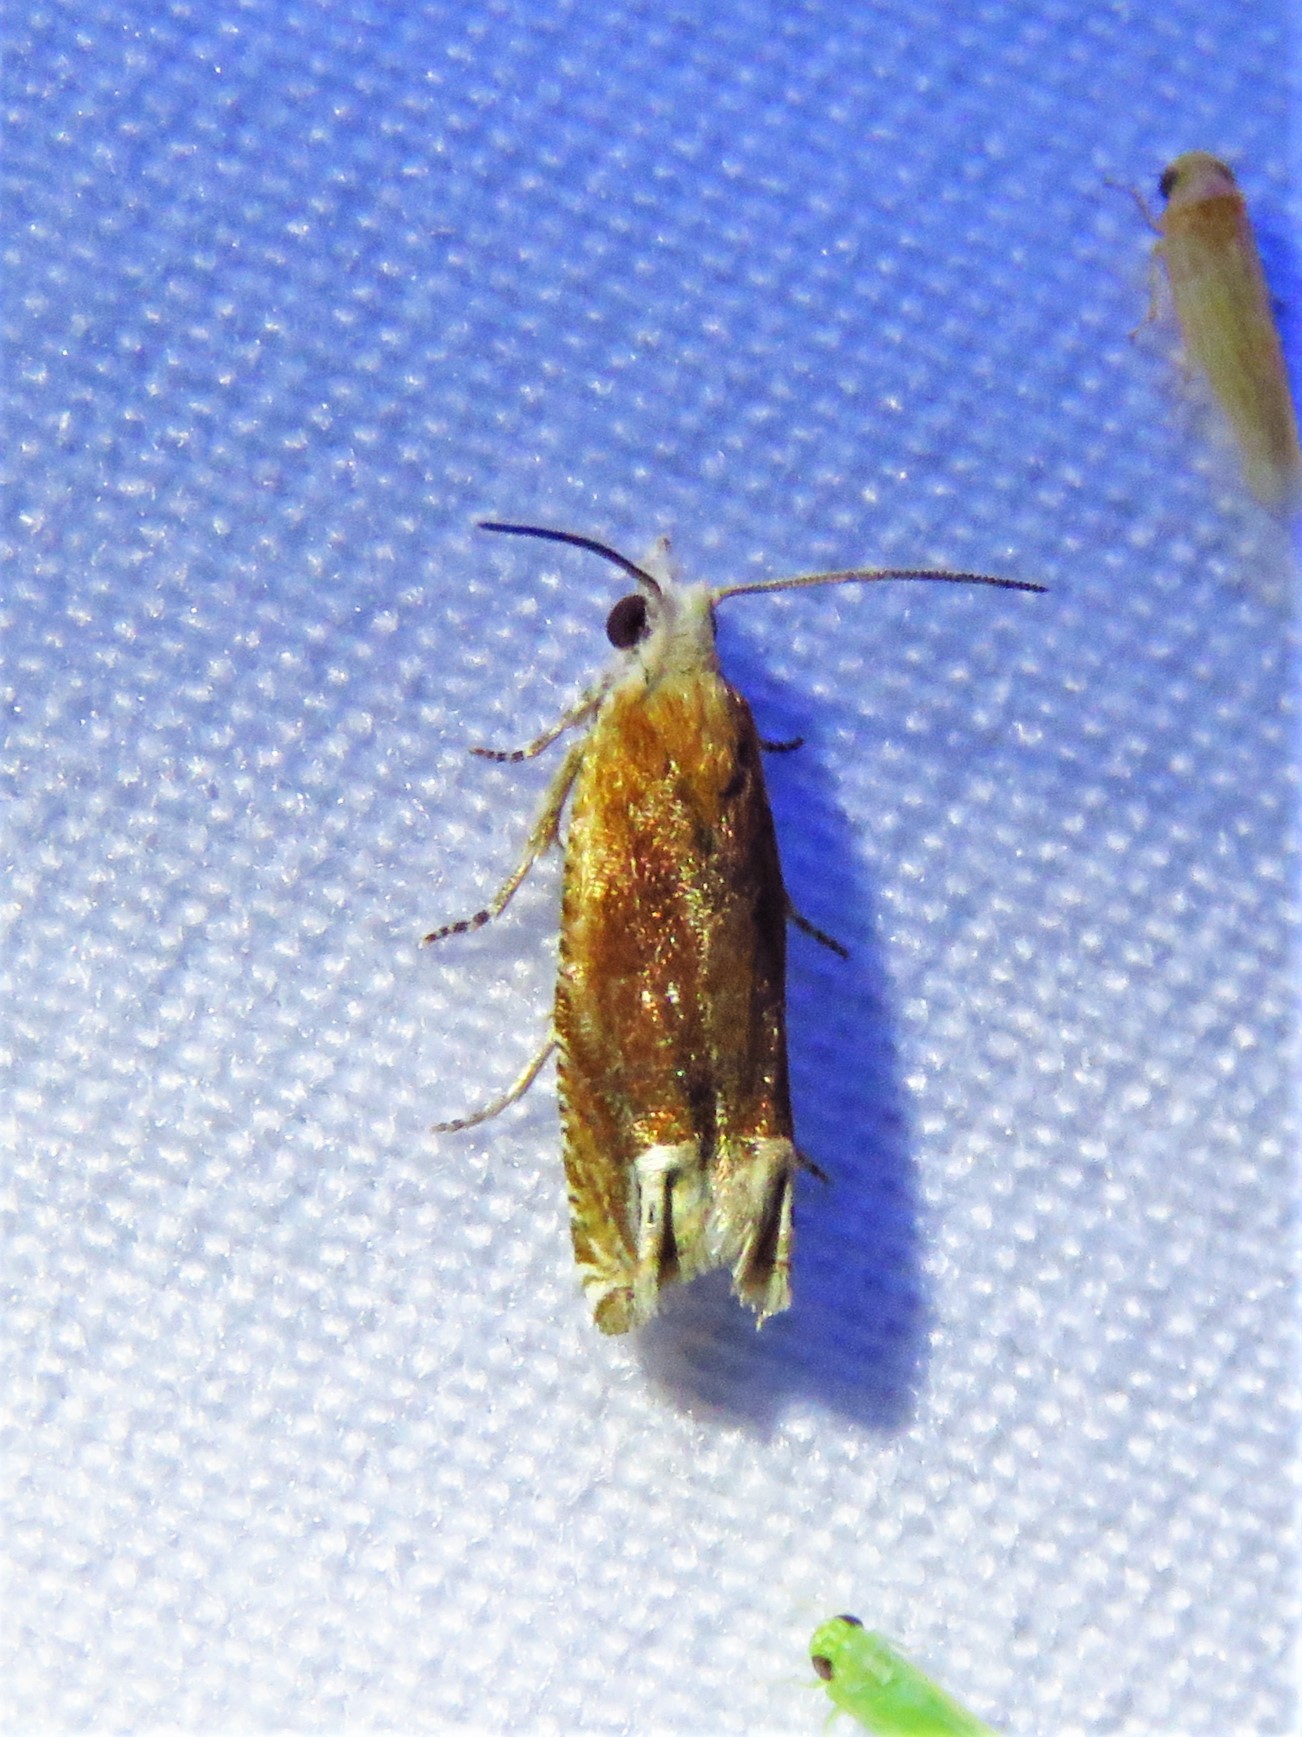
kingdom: Animalia
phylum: Arthropoda
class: Insecta
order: Lepidoptera
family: Tortricidae
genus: Eucosma
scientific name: Eucosma raracana
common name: Reddish eucosma moth
